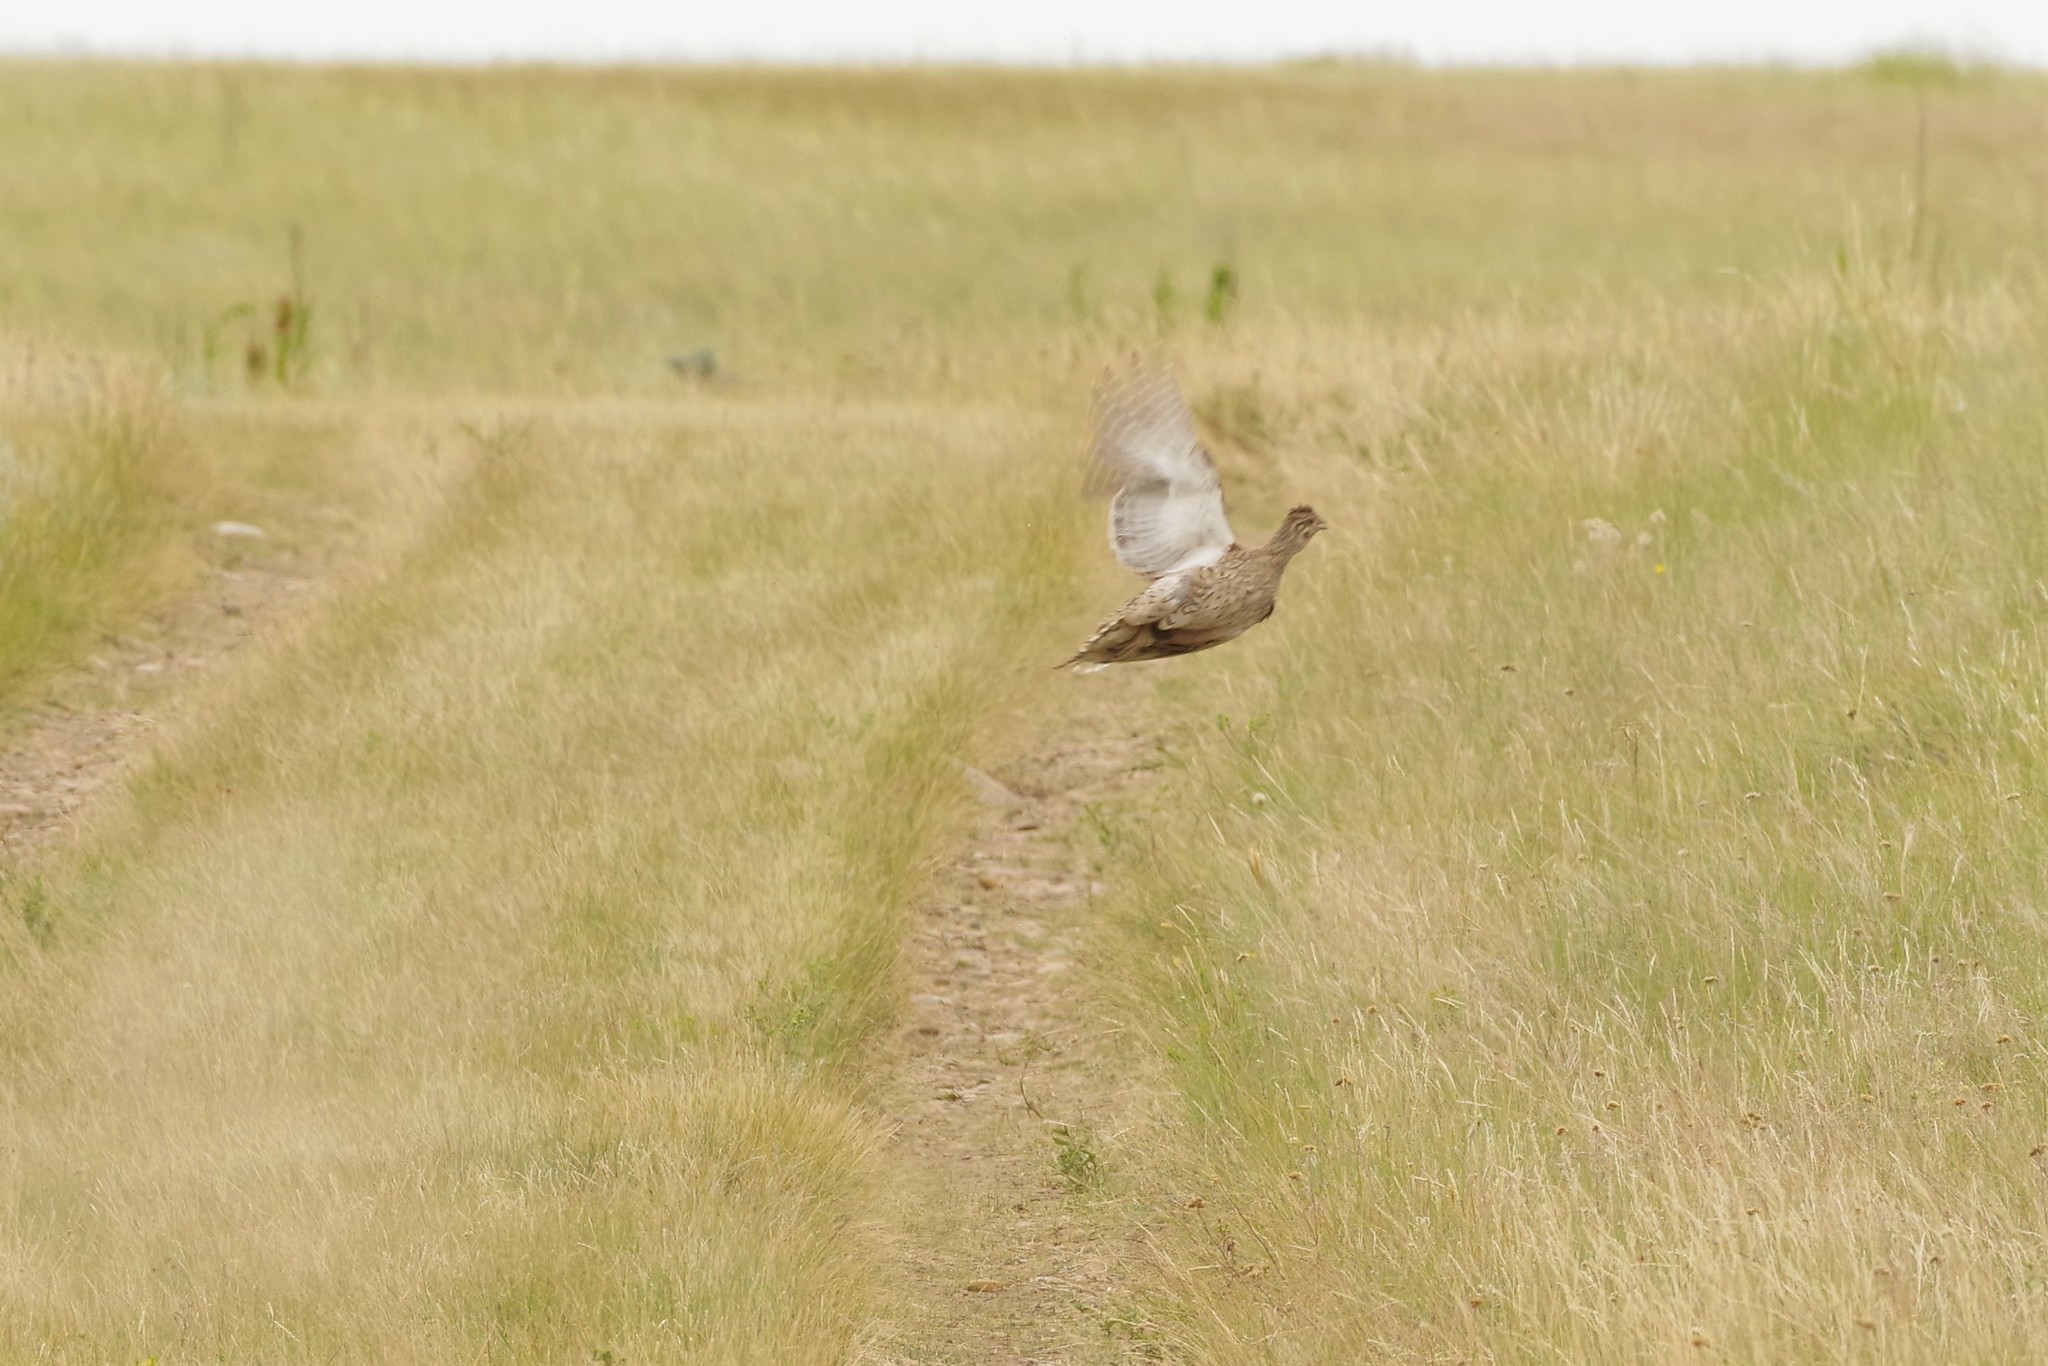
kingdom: Animalia
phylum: Chordata
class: Aves
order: Galliformes
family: Phasianidae
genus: Tympanuchus
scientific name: Tympanuchus phasianellus
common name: Sharp-tailed grouse
